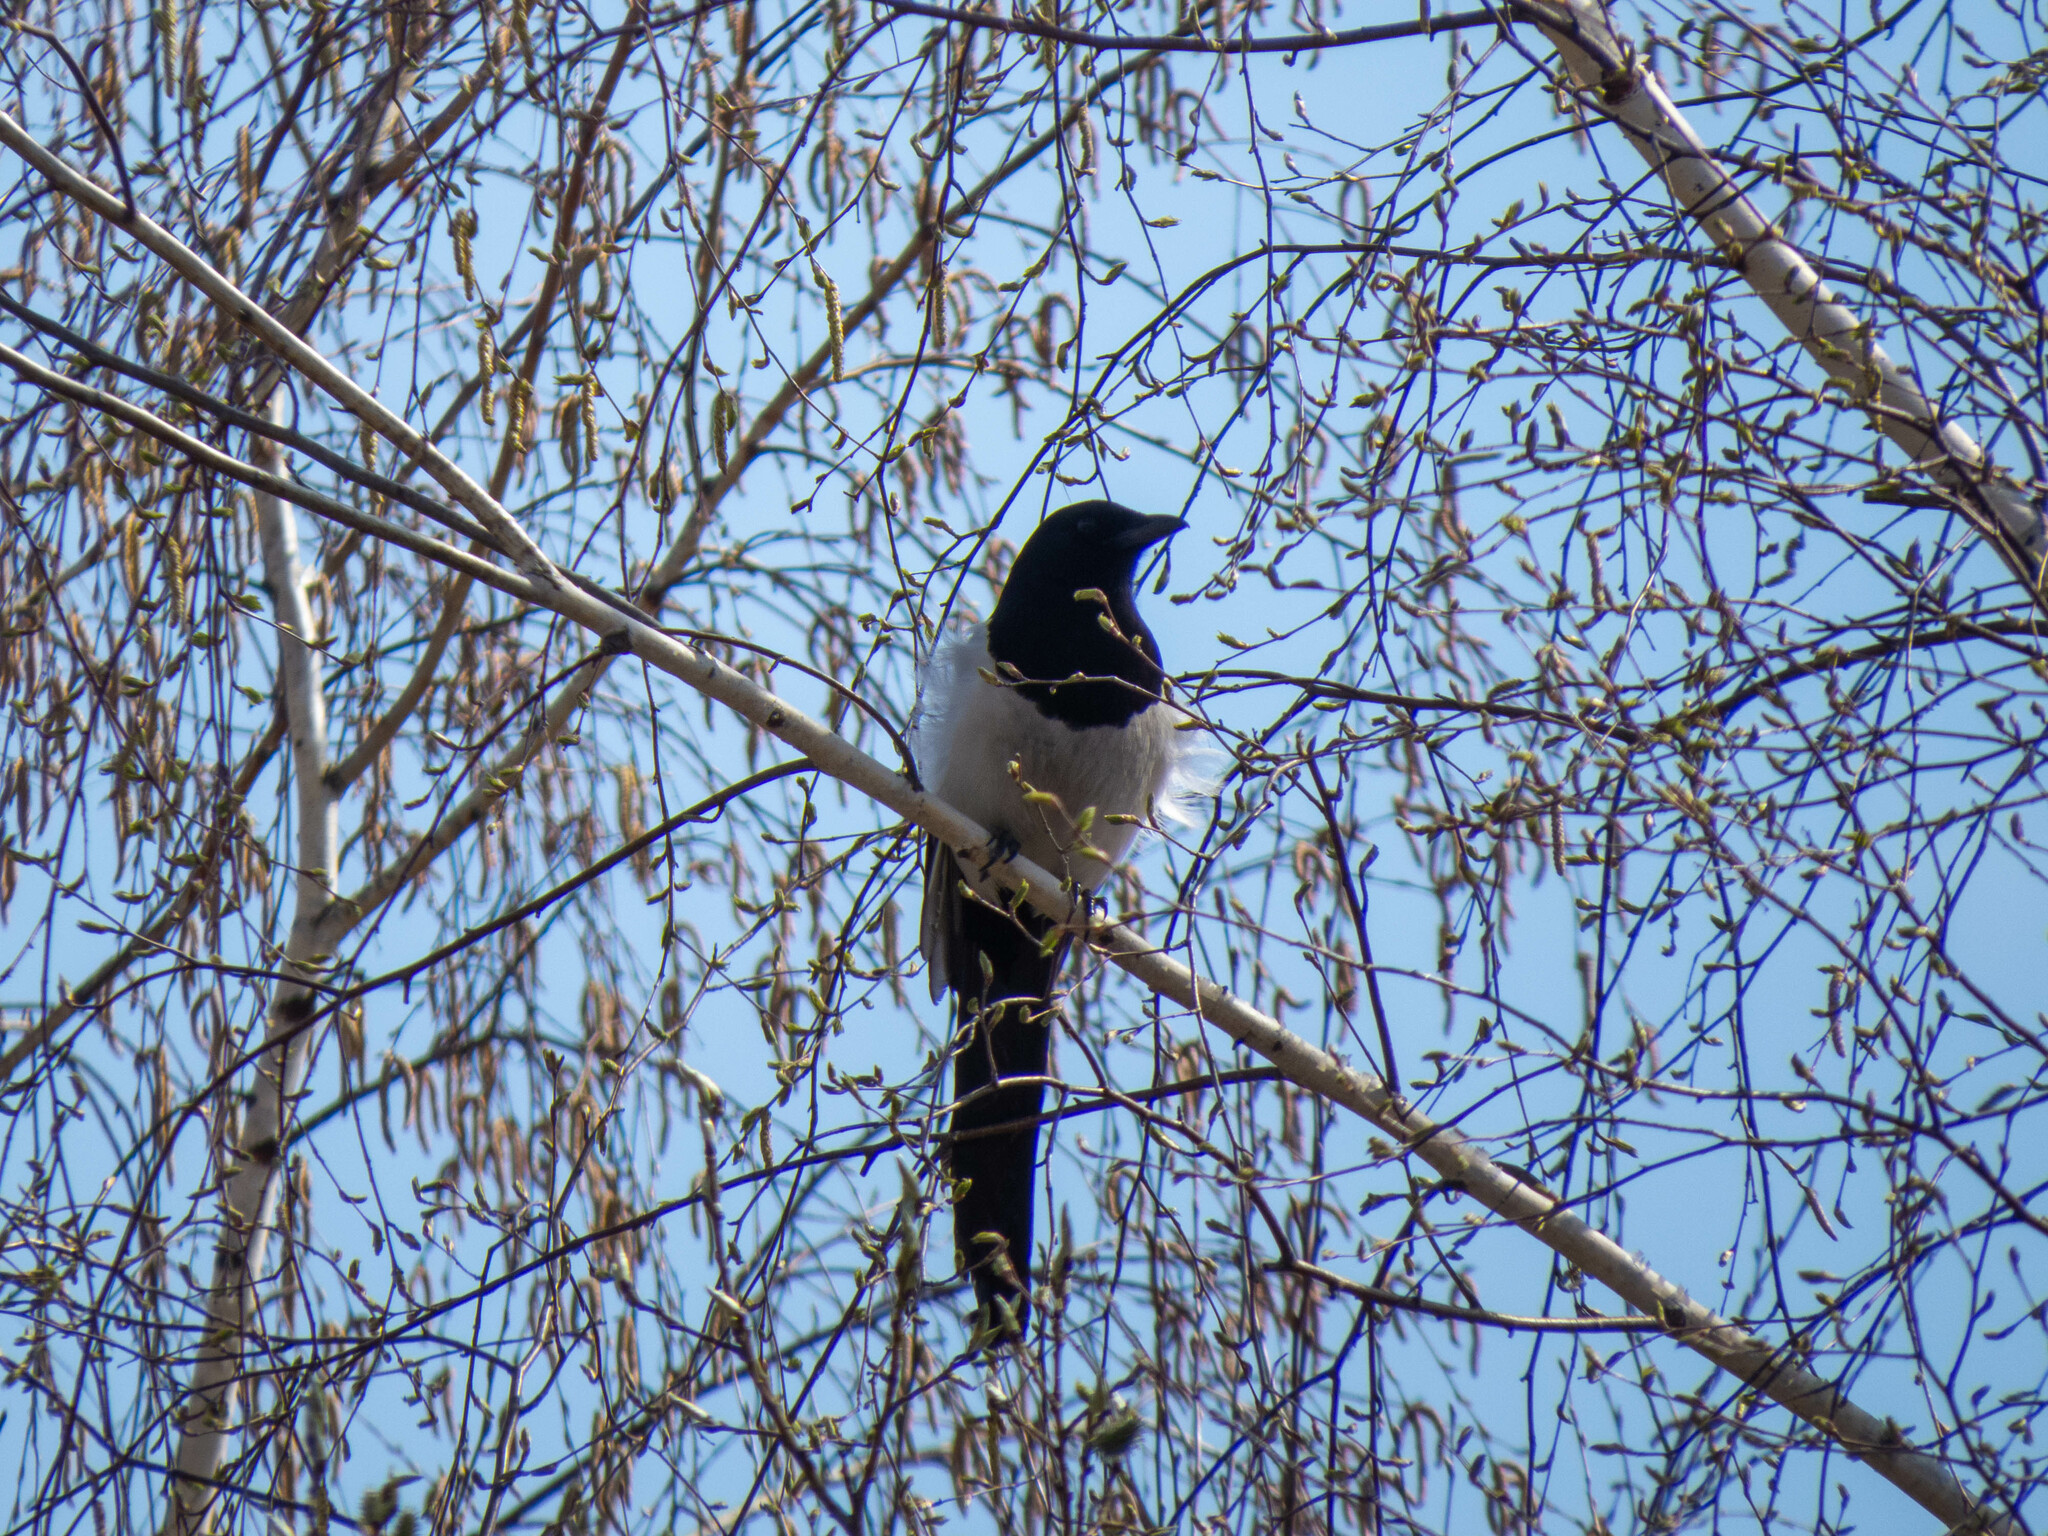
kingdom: Animalia
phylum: Chordata
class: Aves
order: Passeriformes
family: Corvidae
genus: Pica
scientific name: Pica pica
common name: Eurasian magpie
